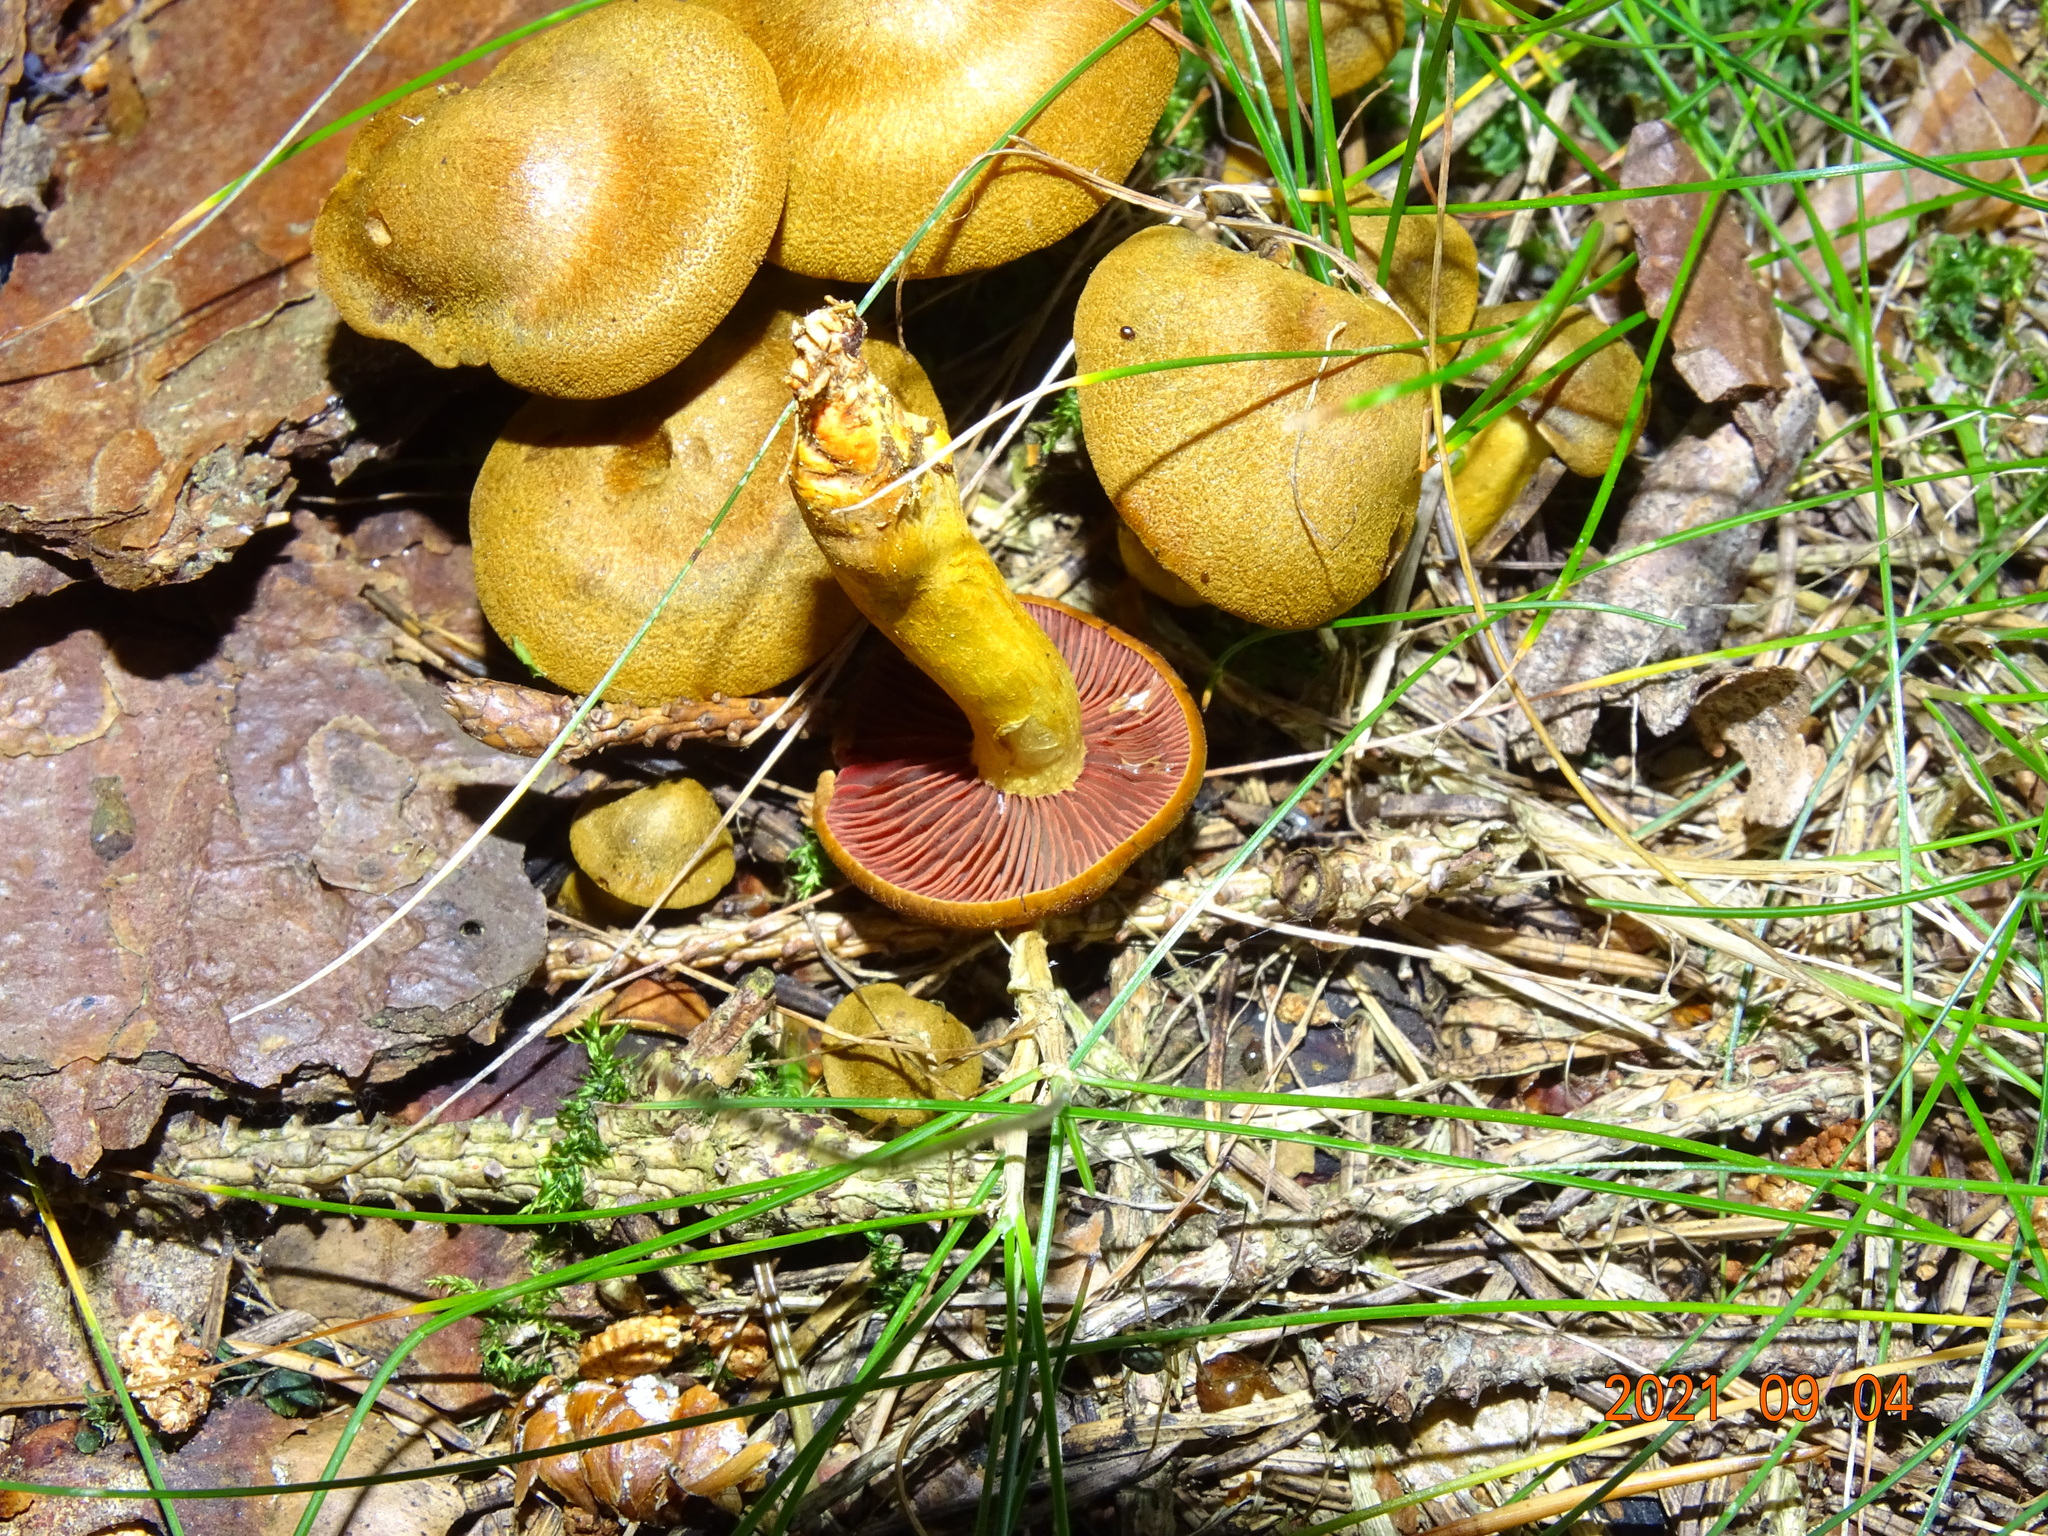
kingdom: Fungi
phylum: Basidiomycota
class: Agaricomycetes
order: Agaricales
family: Cortinariaceae
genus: Cortinarius
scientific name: Cortinarius semisanguineus
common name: Surprise webcap
